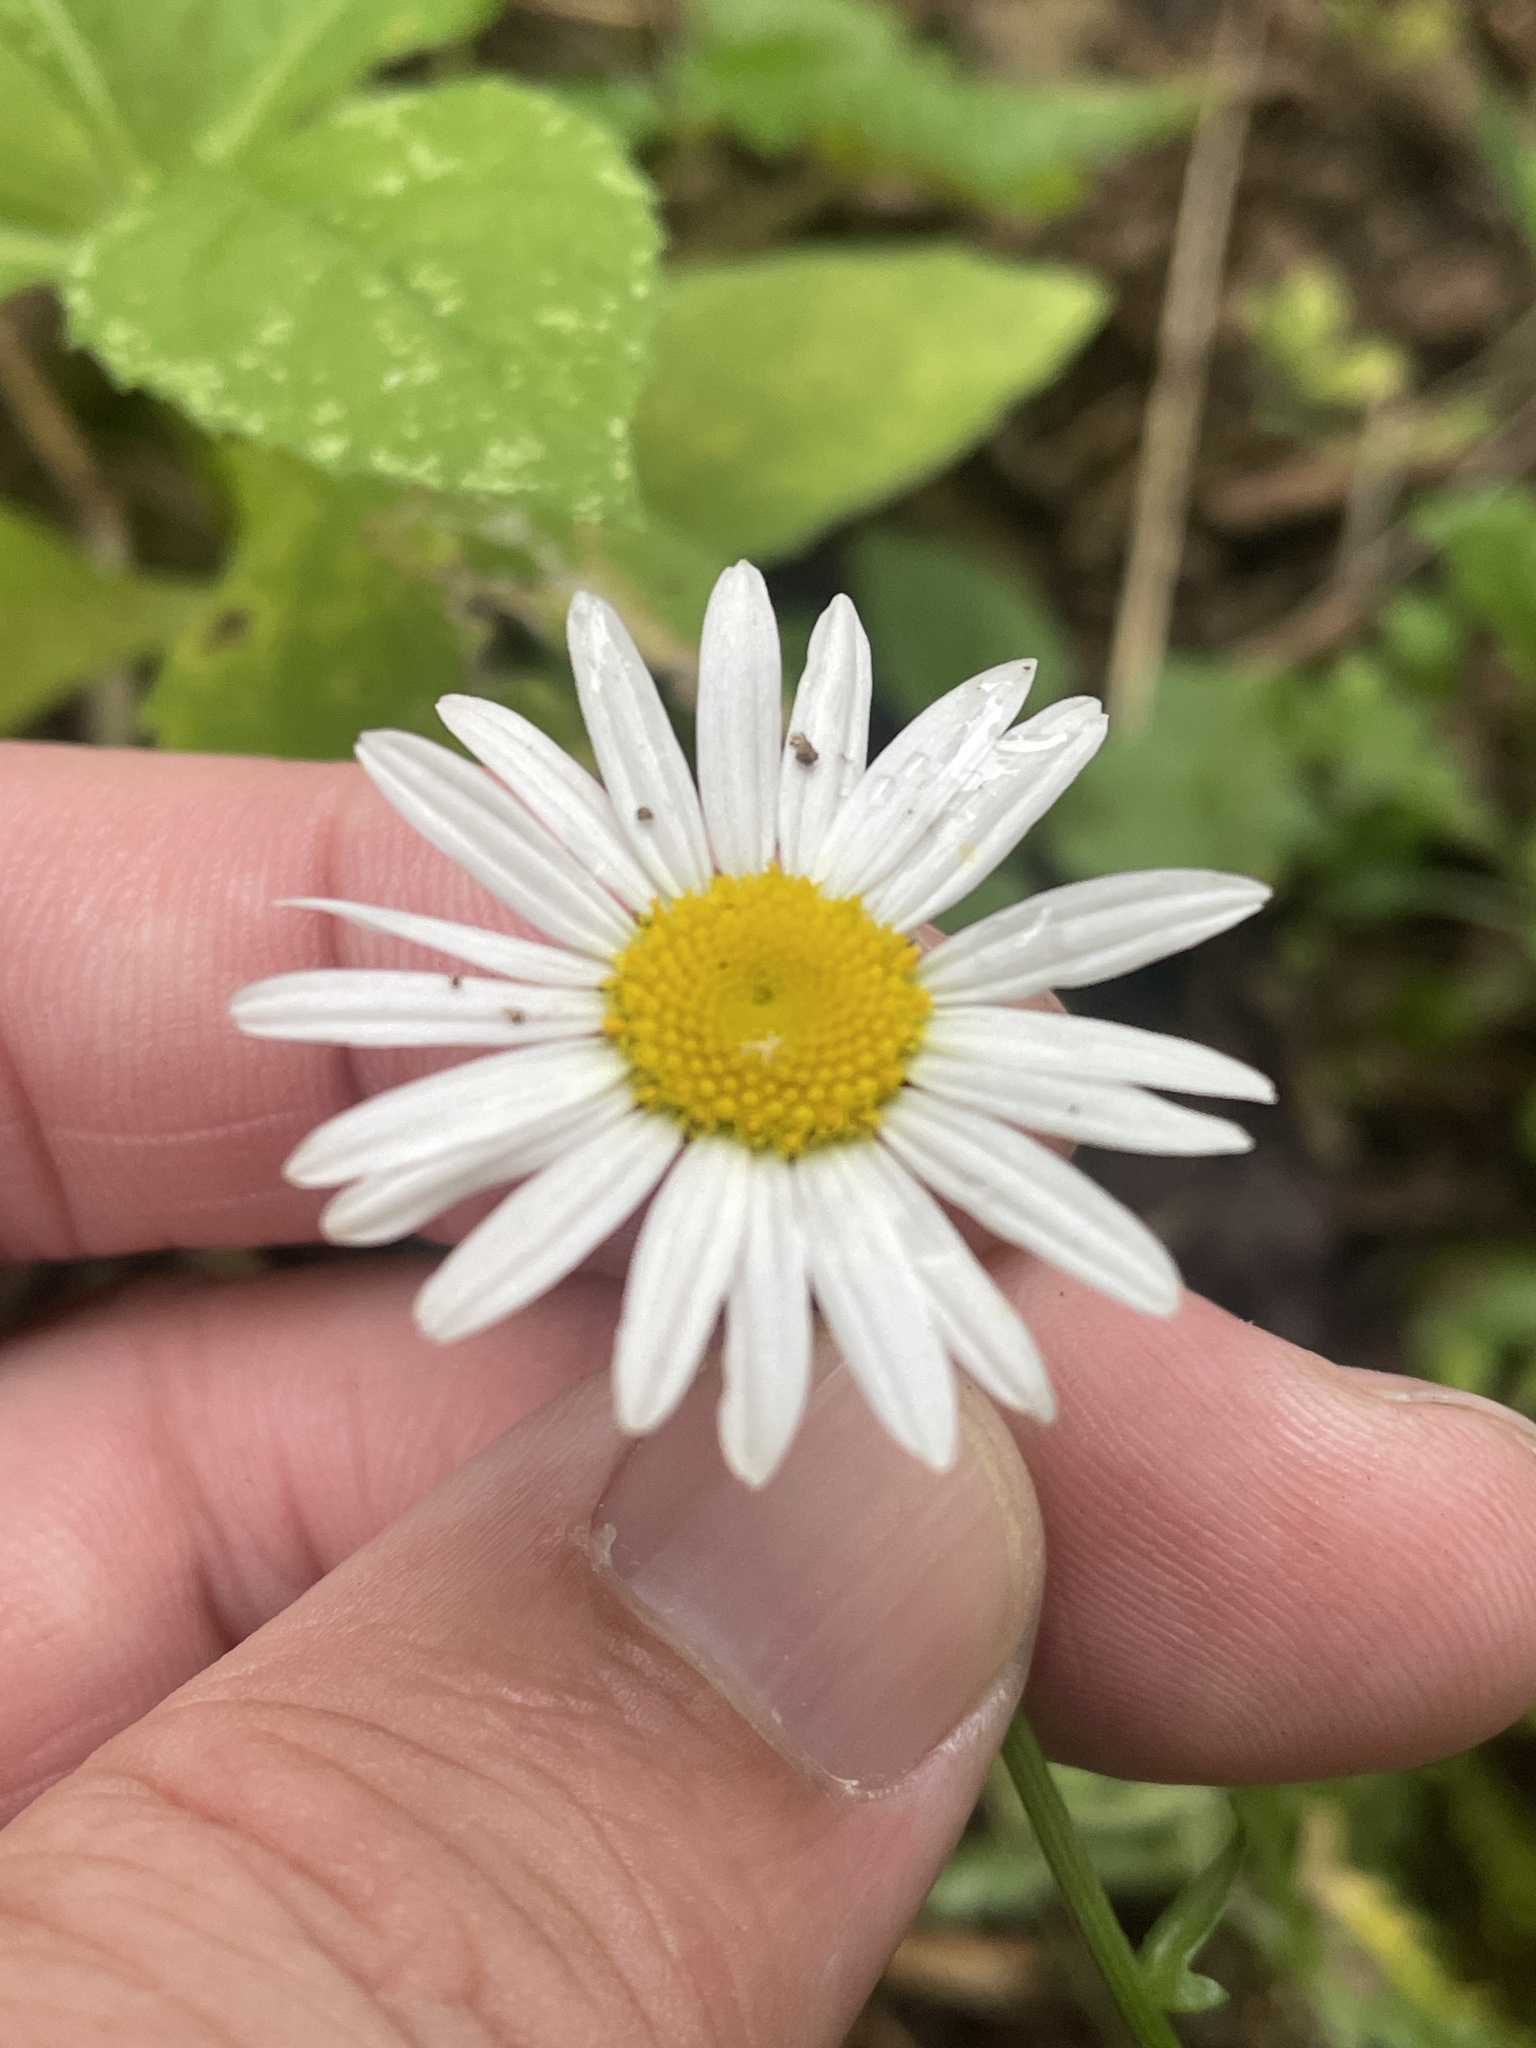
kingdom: Plantae
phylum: Tracheophyta
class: Magnoliopsida
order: Asterales
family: Asteraceae
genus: Leucanthemum
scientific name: Leucanthemum vulgare
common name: Oxeye daisy
